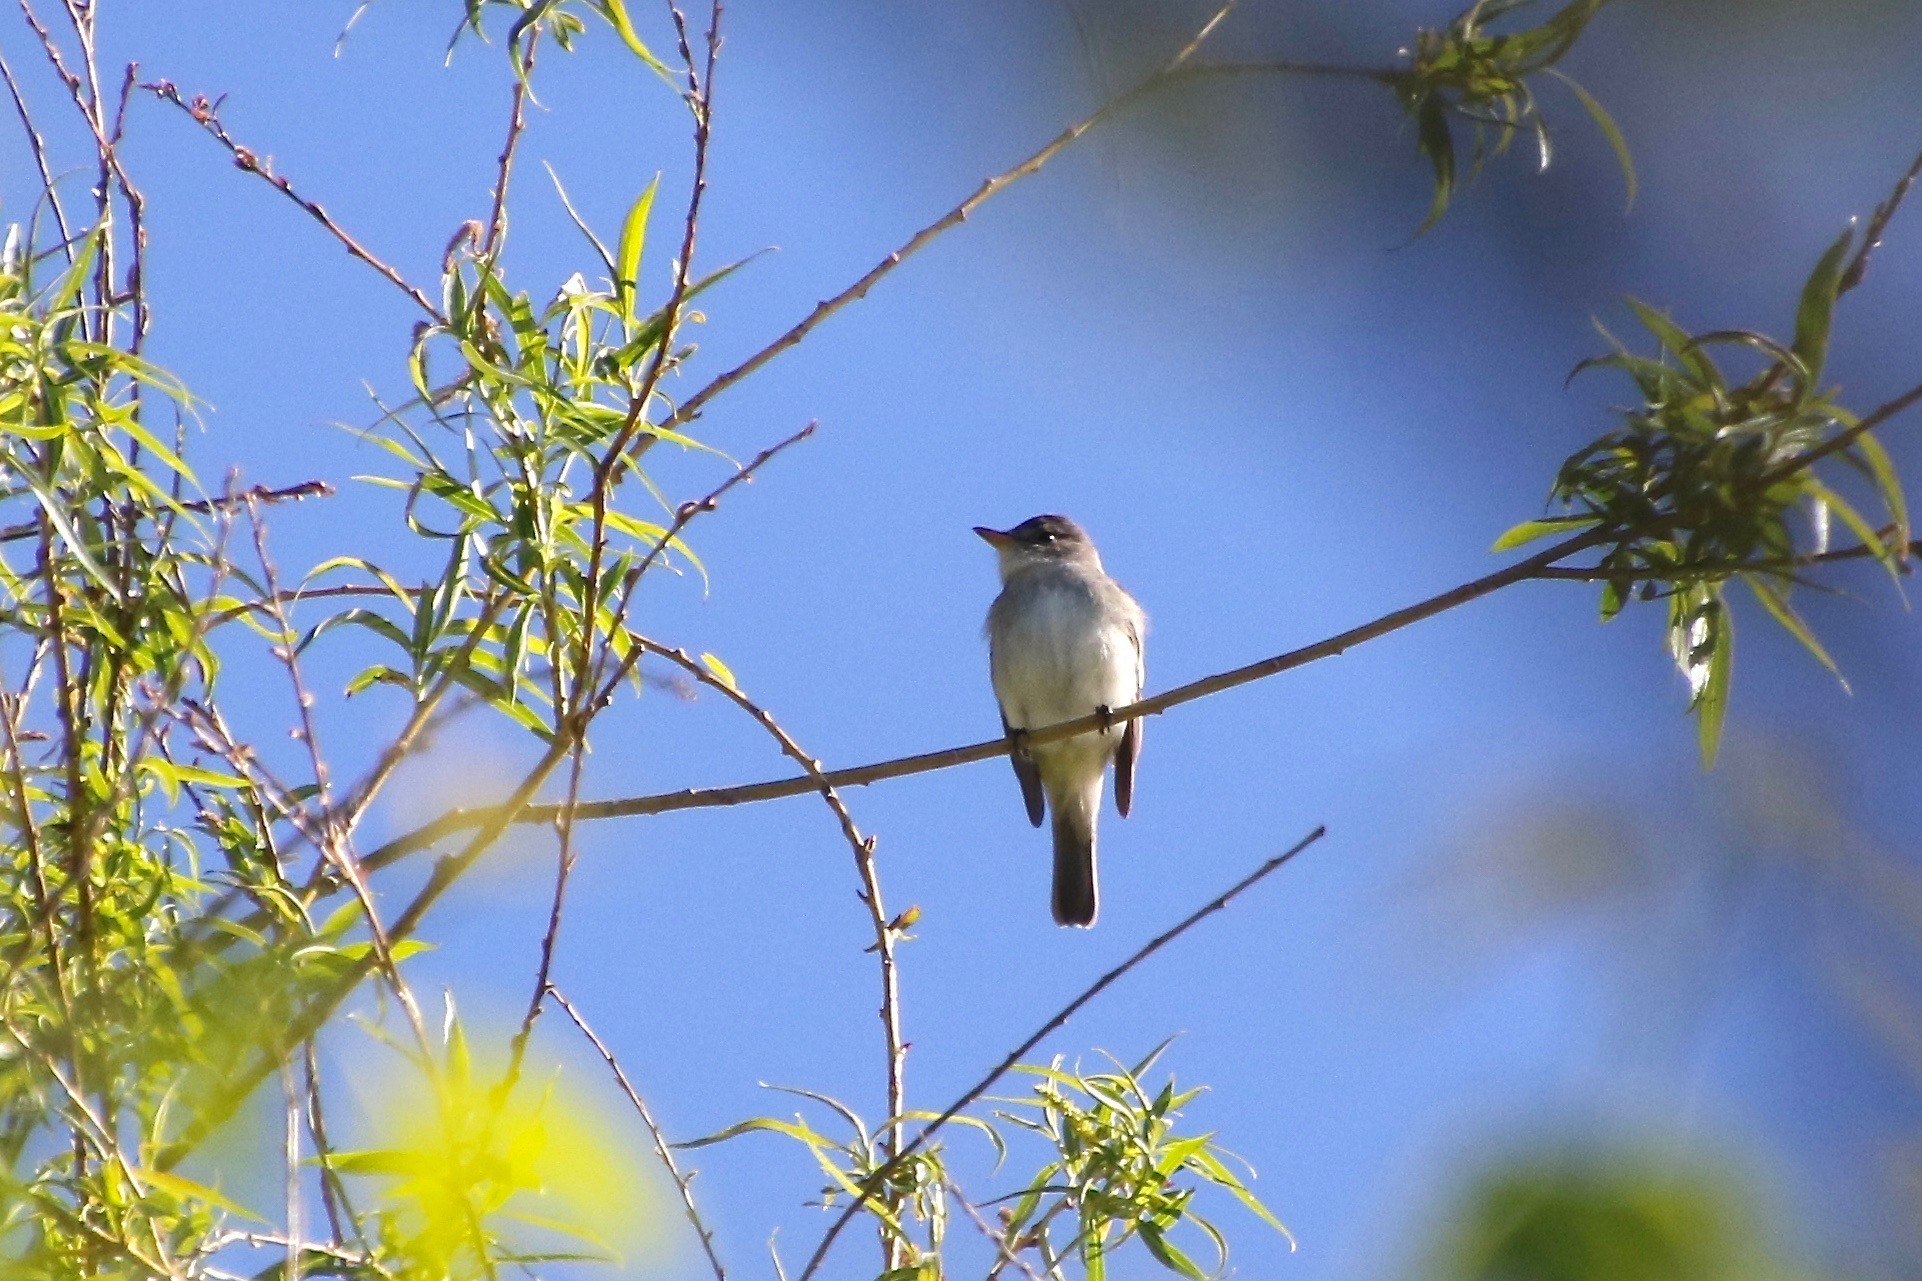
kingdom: Animalia
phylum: Chordata
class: Aves
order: Passeriformes
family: Tyrannidae
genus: Empidonax
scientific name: Empidonax traillii
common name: Willow flycatcher
